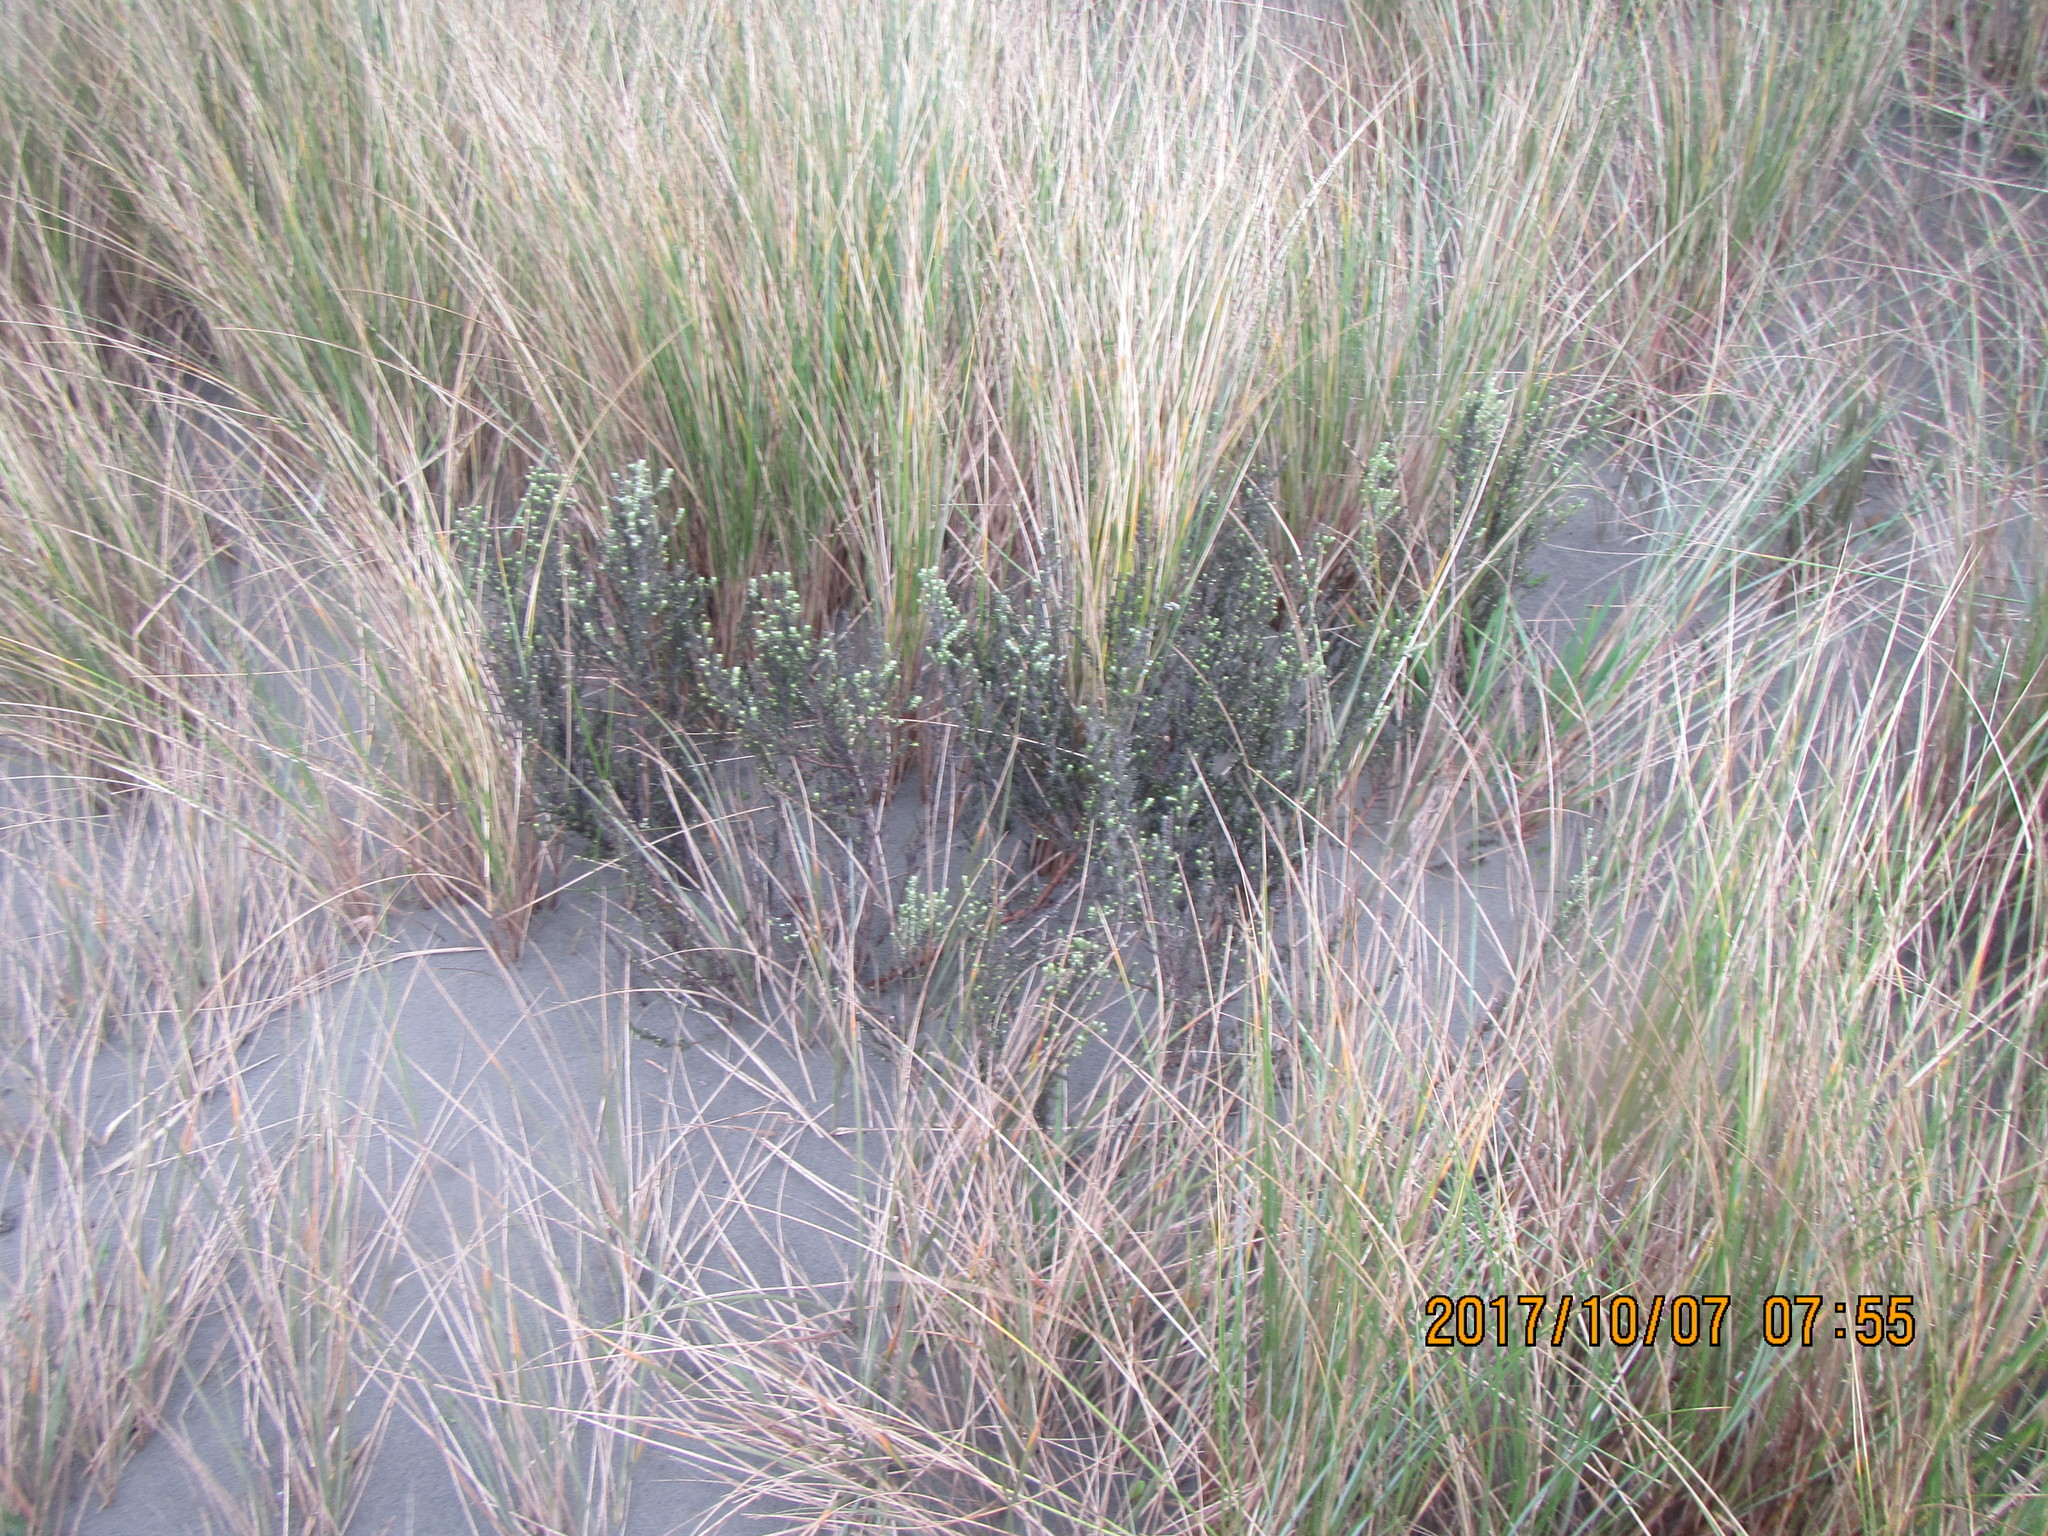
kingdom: Plantae
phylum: Tracheophyta
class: Magnoliopsida
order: Asterales
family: Asteraceae
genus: Ozothamnus
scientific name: Ozothamnus leptophyllus
